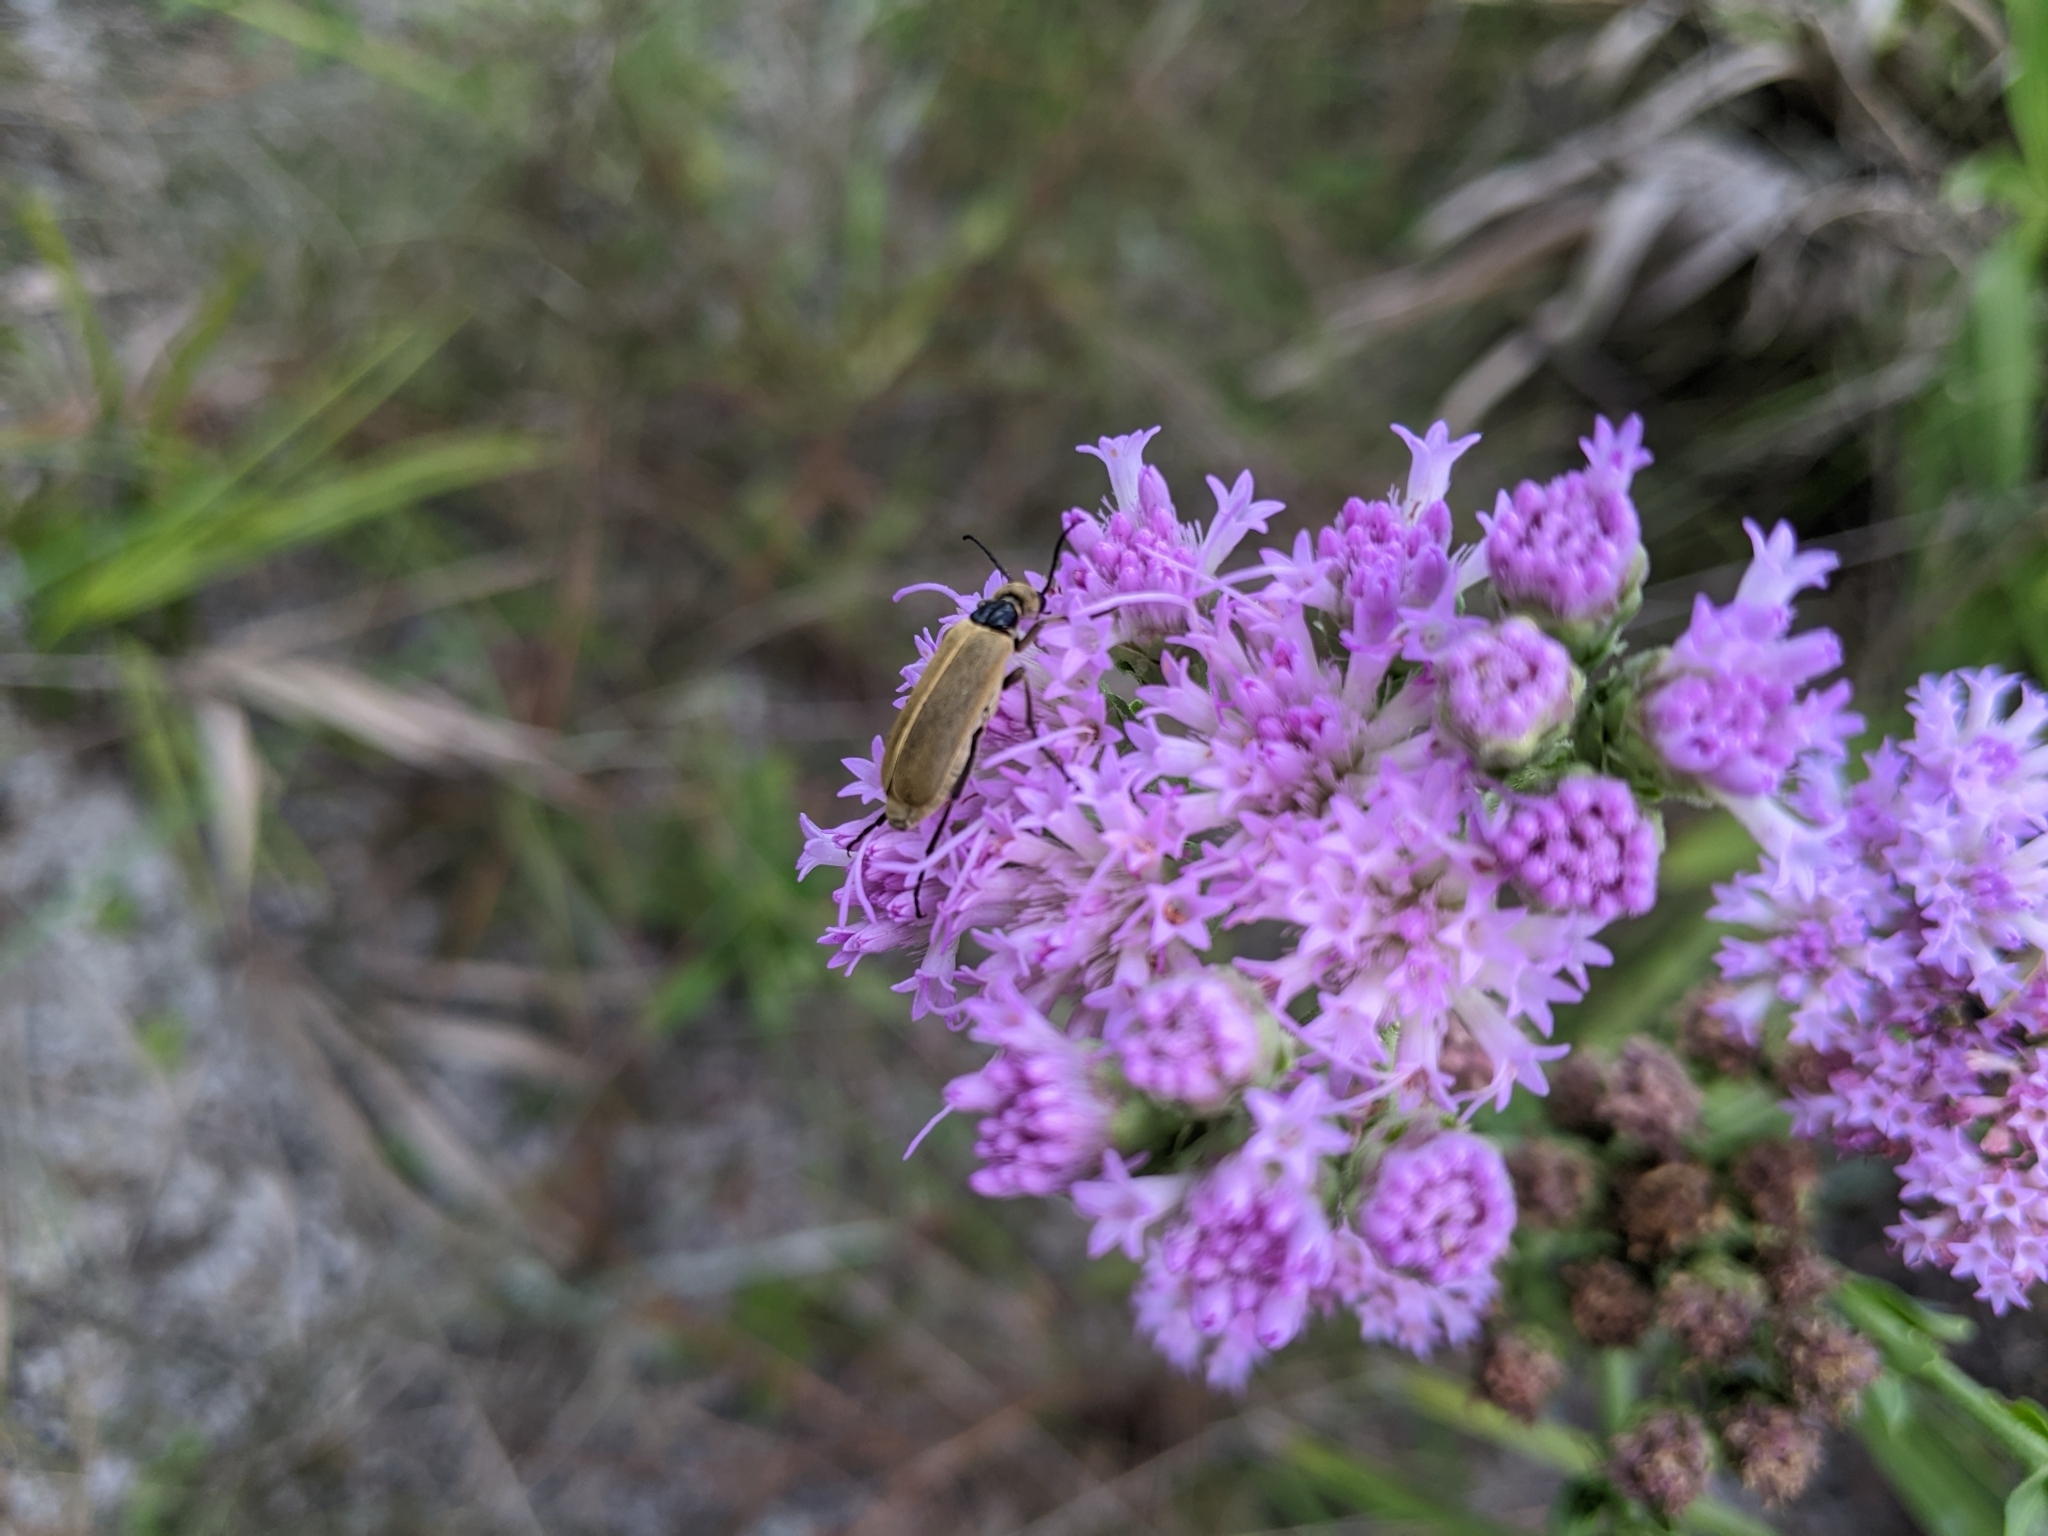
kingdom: Animalia
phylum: Arthropoda
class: Insecta
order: Coleoptera
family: Meloidae
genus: Epicauta
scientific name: Epicauta heterodera
